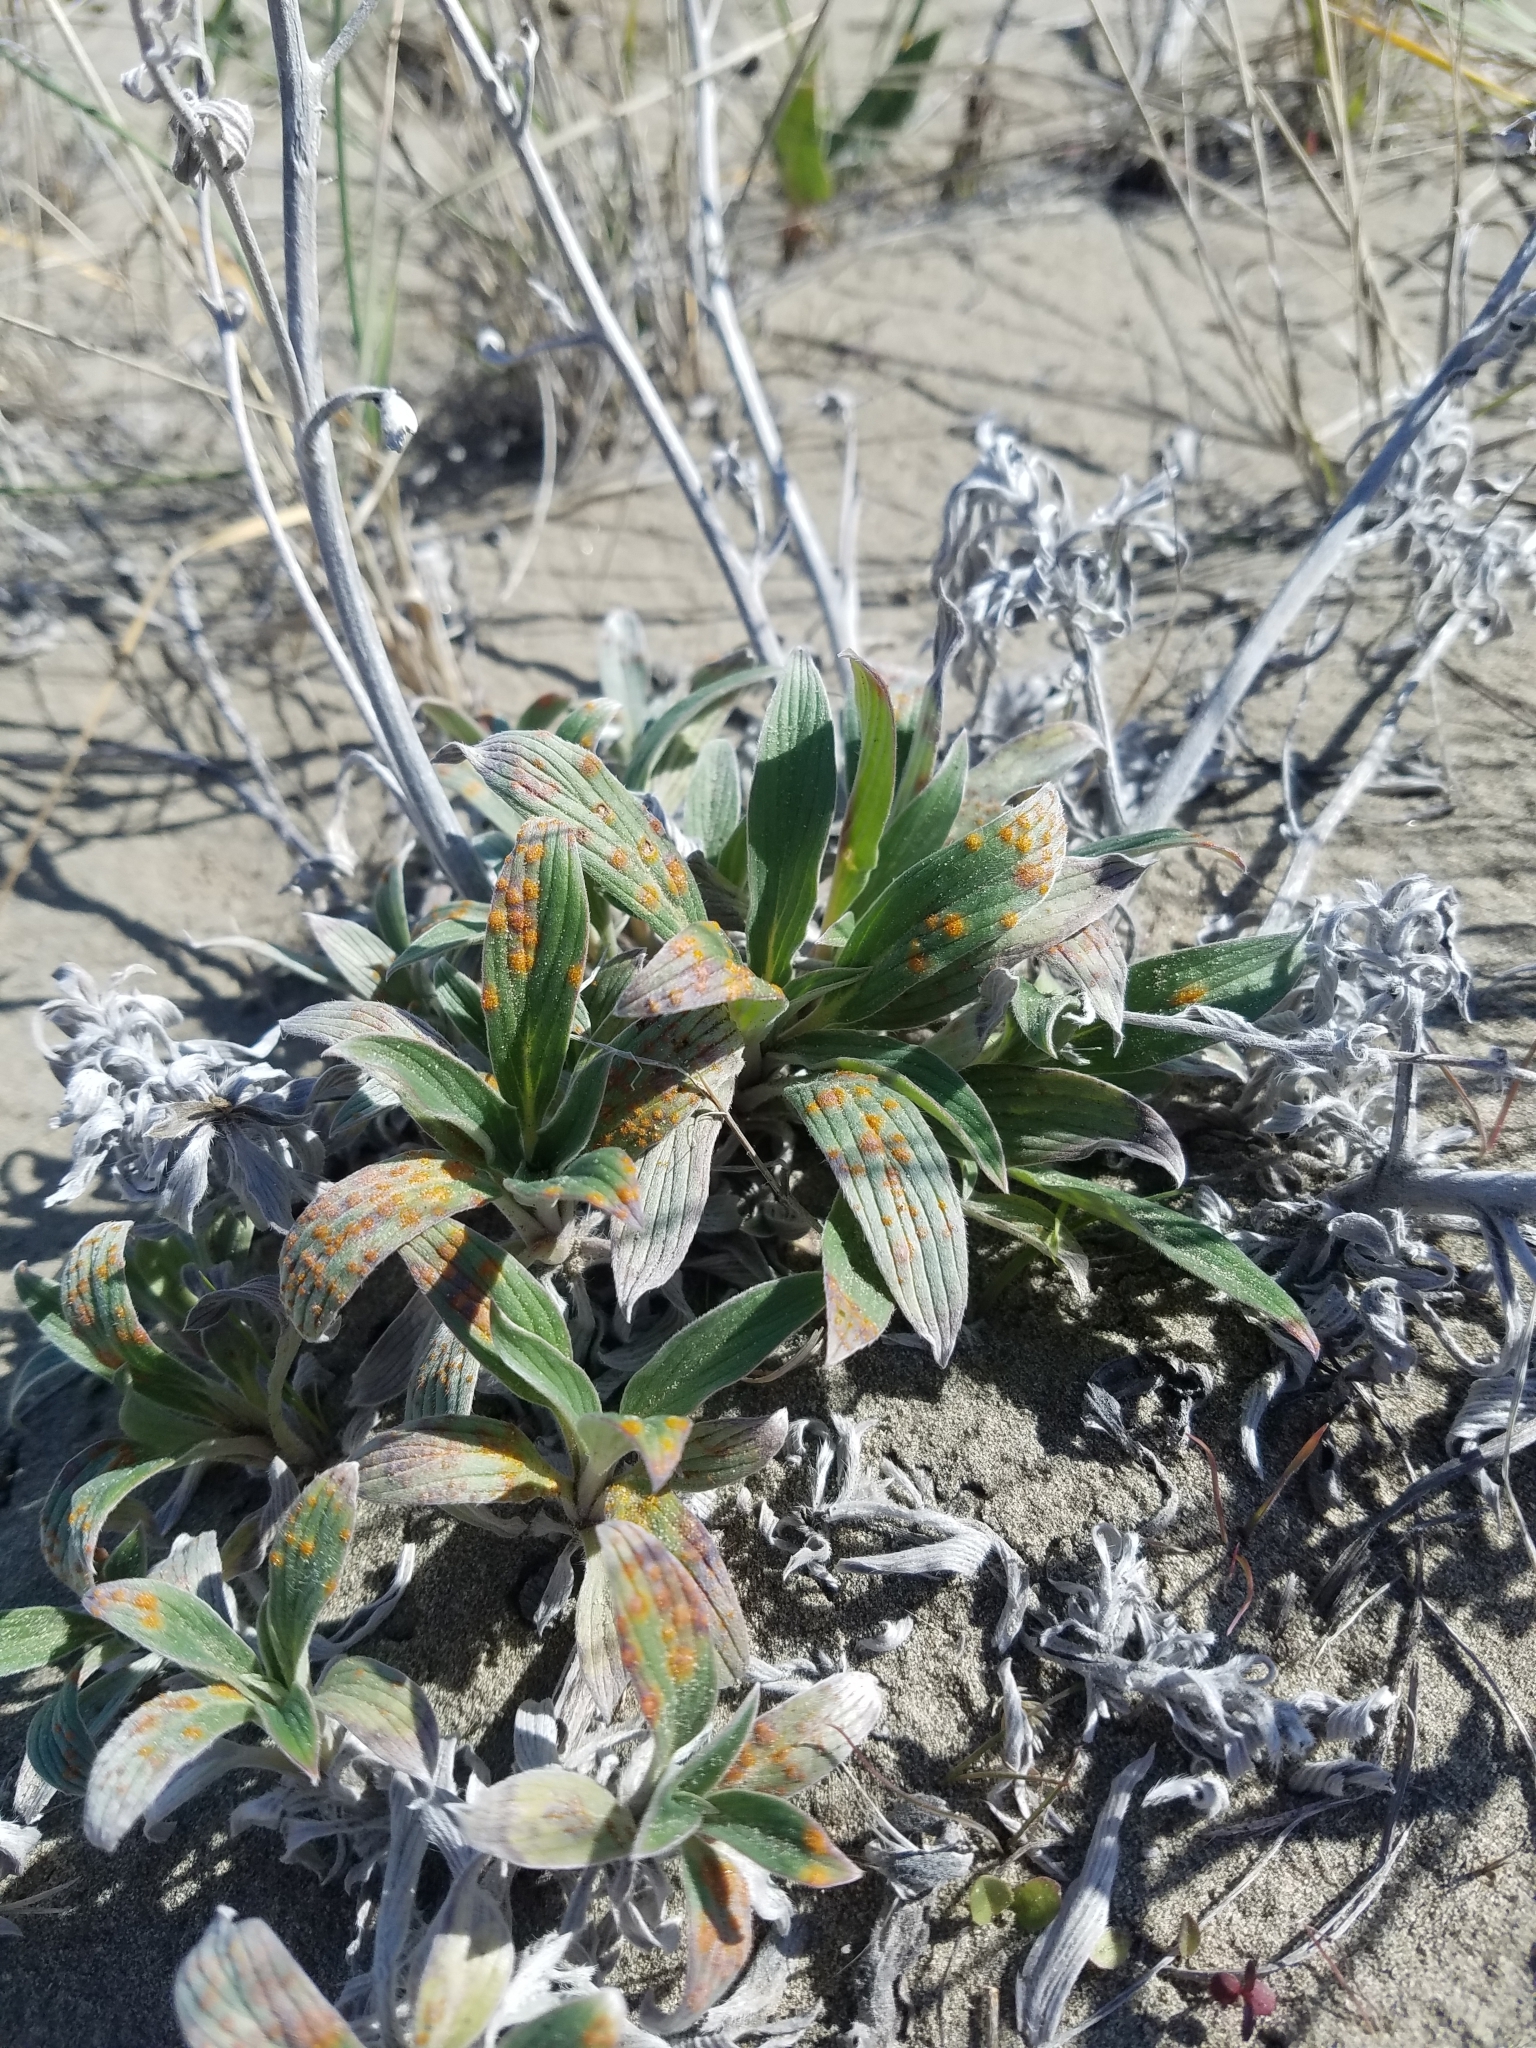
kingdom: Plantae
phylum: Tracheophyta
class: Magnoliopsida
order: Boraginales
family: Hydrophyllaceae
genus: Phacelia
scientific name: Phacelia hastata
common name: Silver-leaved phacelia
